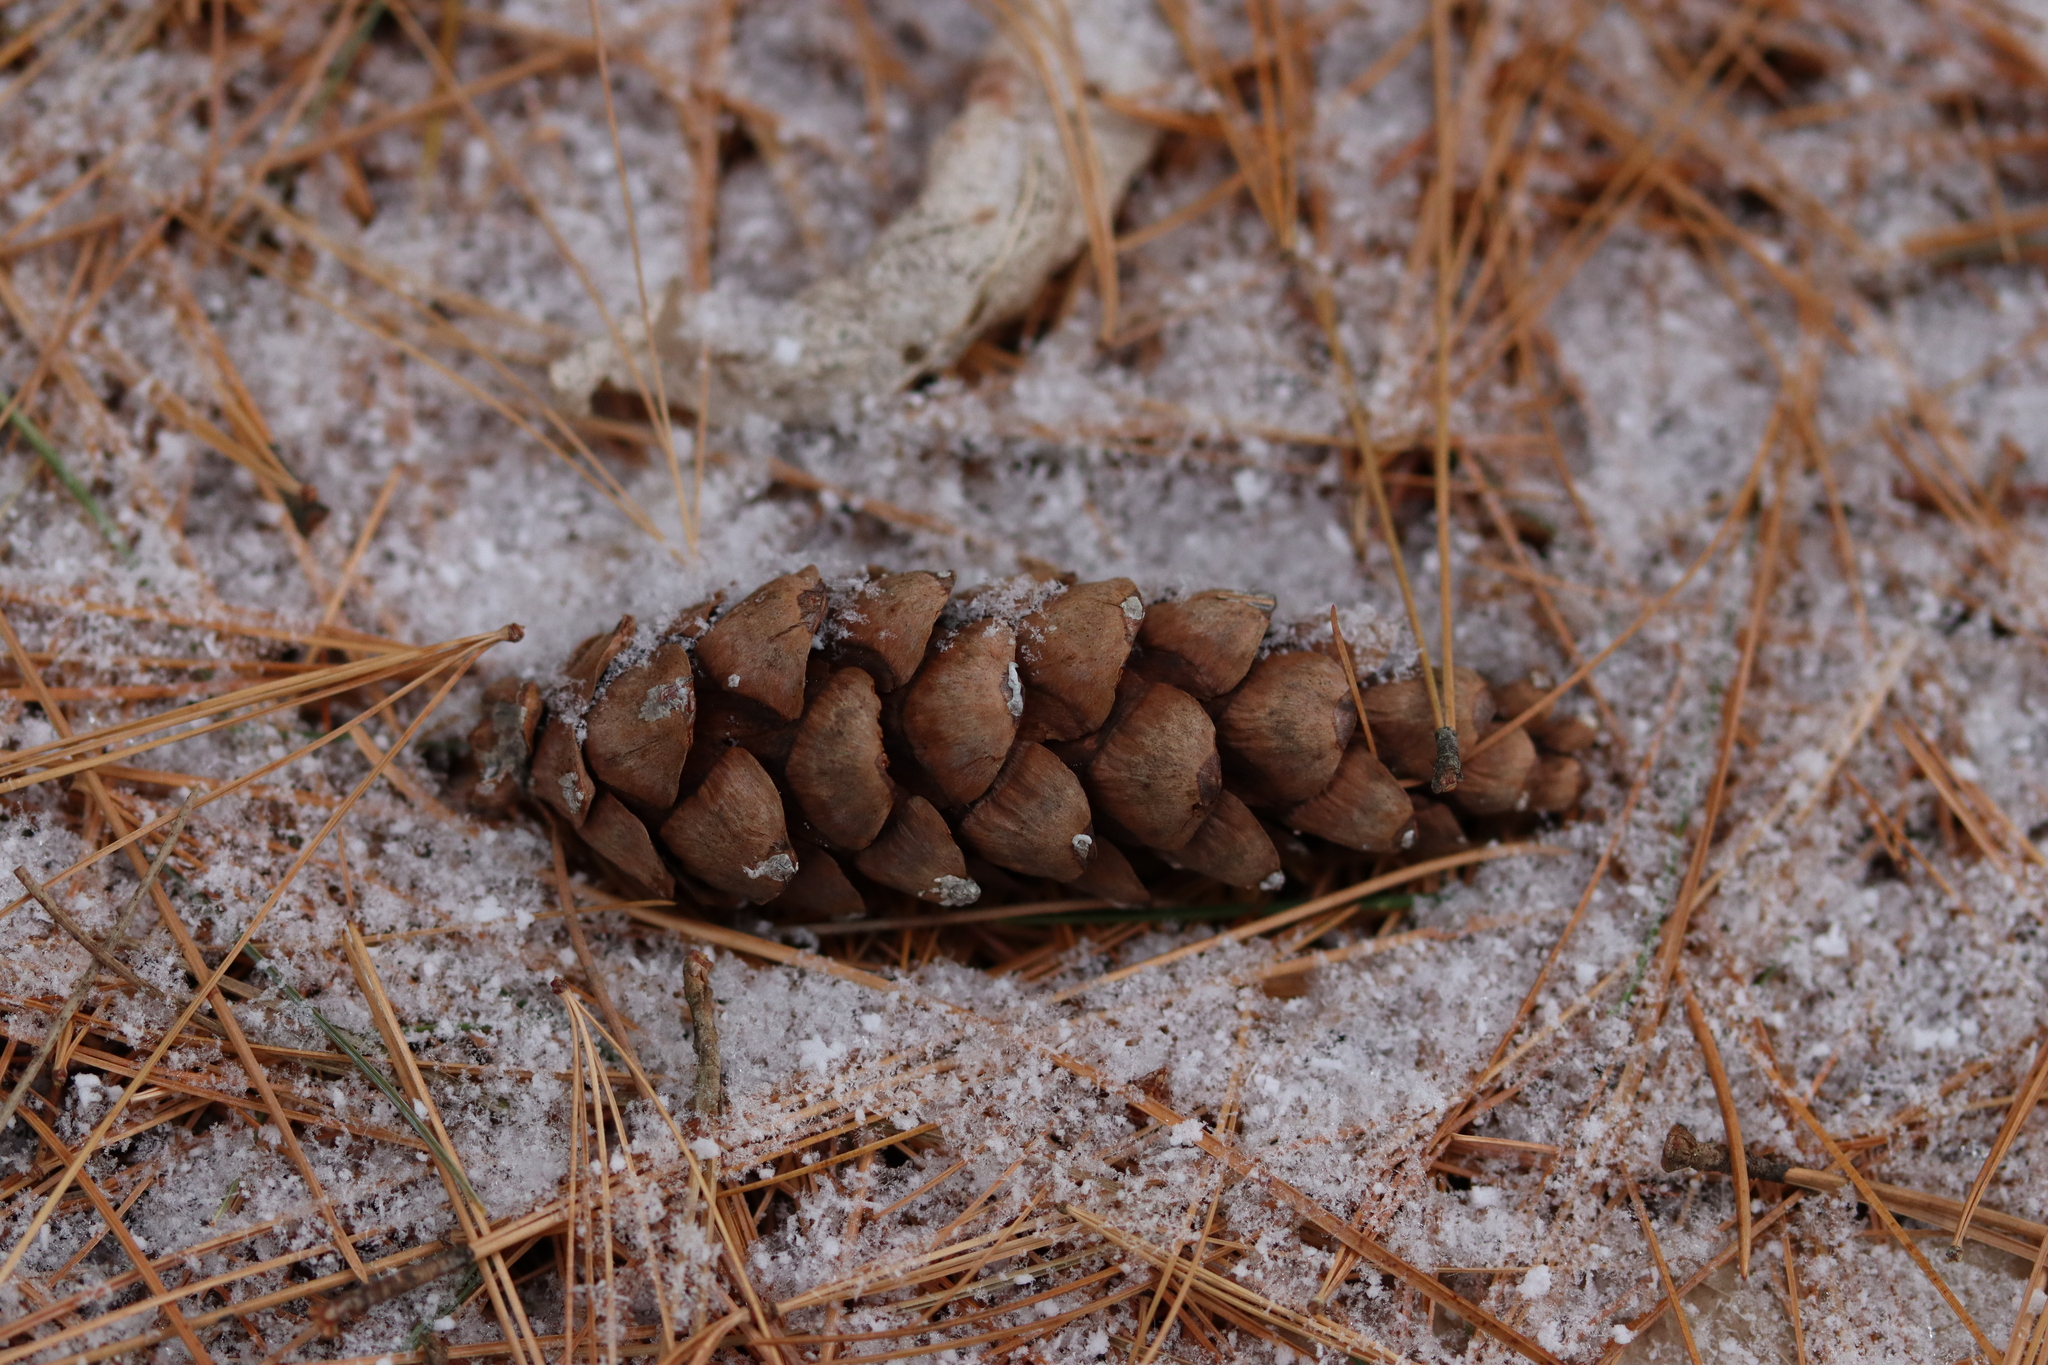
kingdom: Plantae
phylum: Tracheophyta
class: Pinopsida
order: Pinales
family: Pinaceae
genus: Pinus
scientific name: Pinus strobus
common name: Weymouth pine
